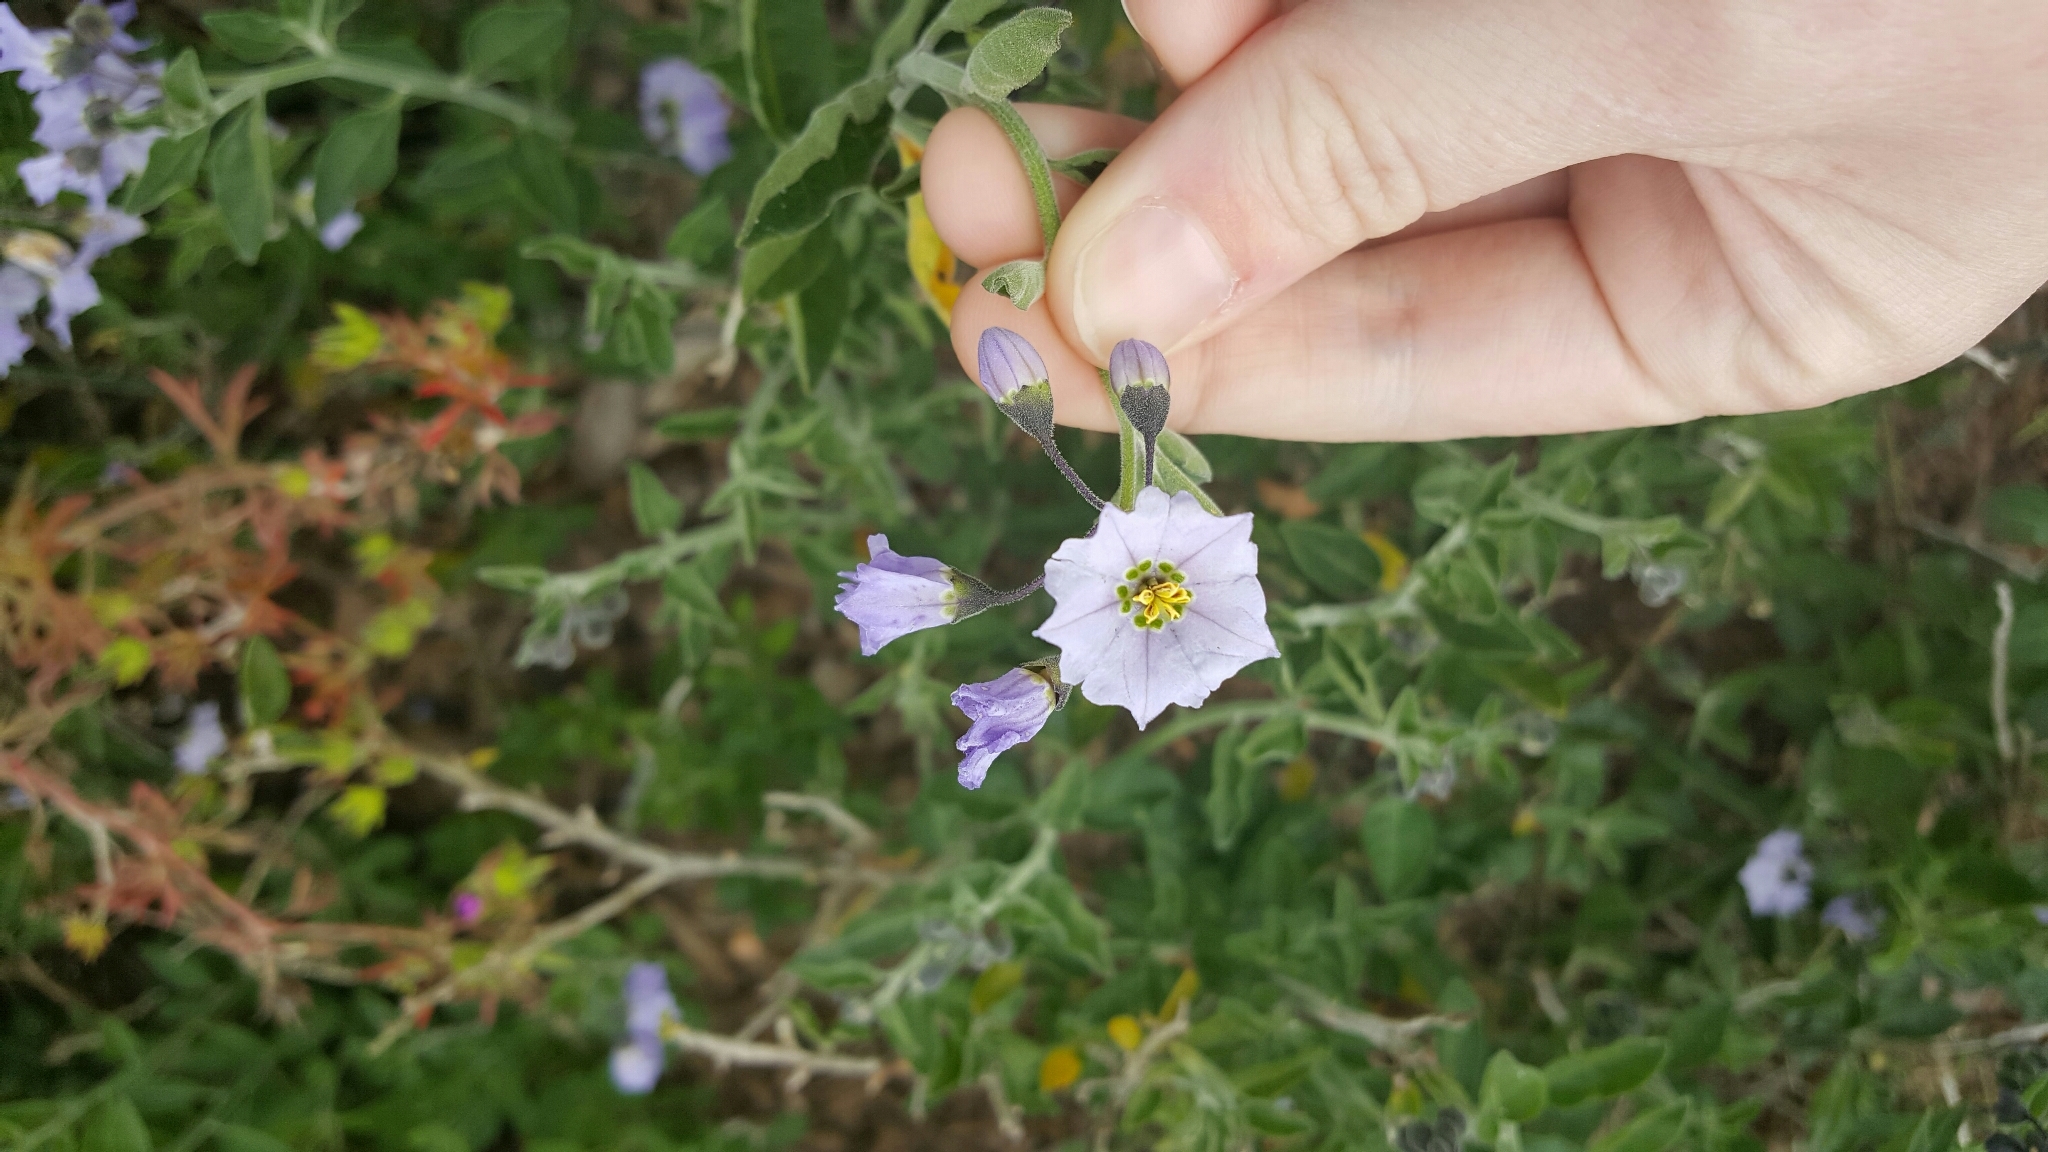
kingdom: Plantae
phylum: Tracheophyta
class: Magnoliopsida
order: Solanales
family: Solanaceae
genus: Solanum
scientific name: Solanum umbelliferum
